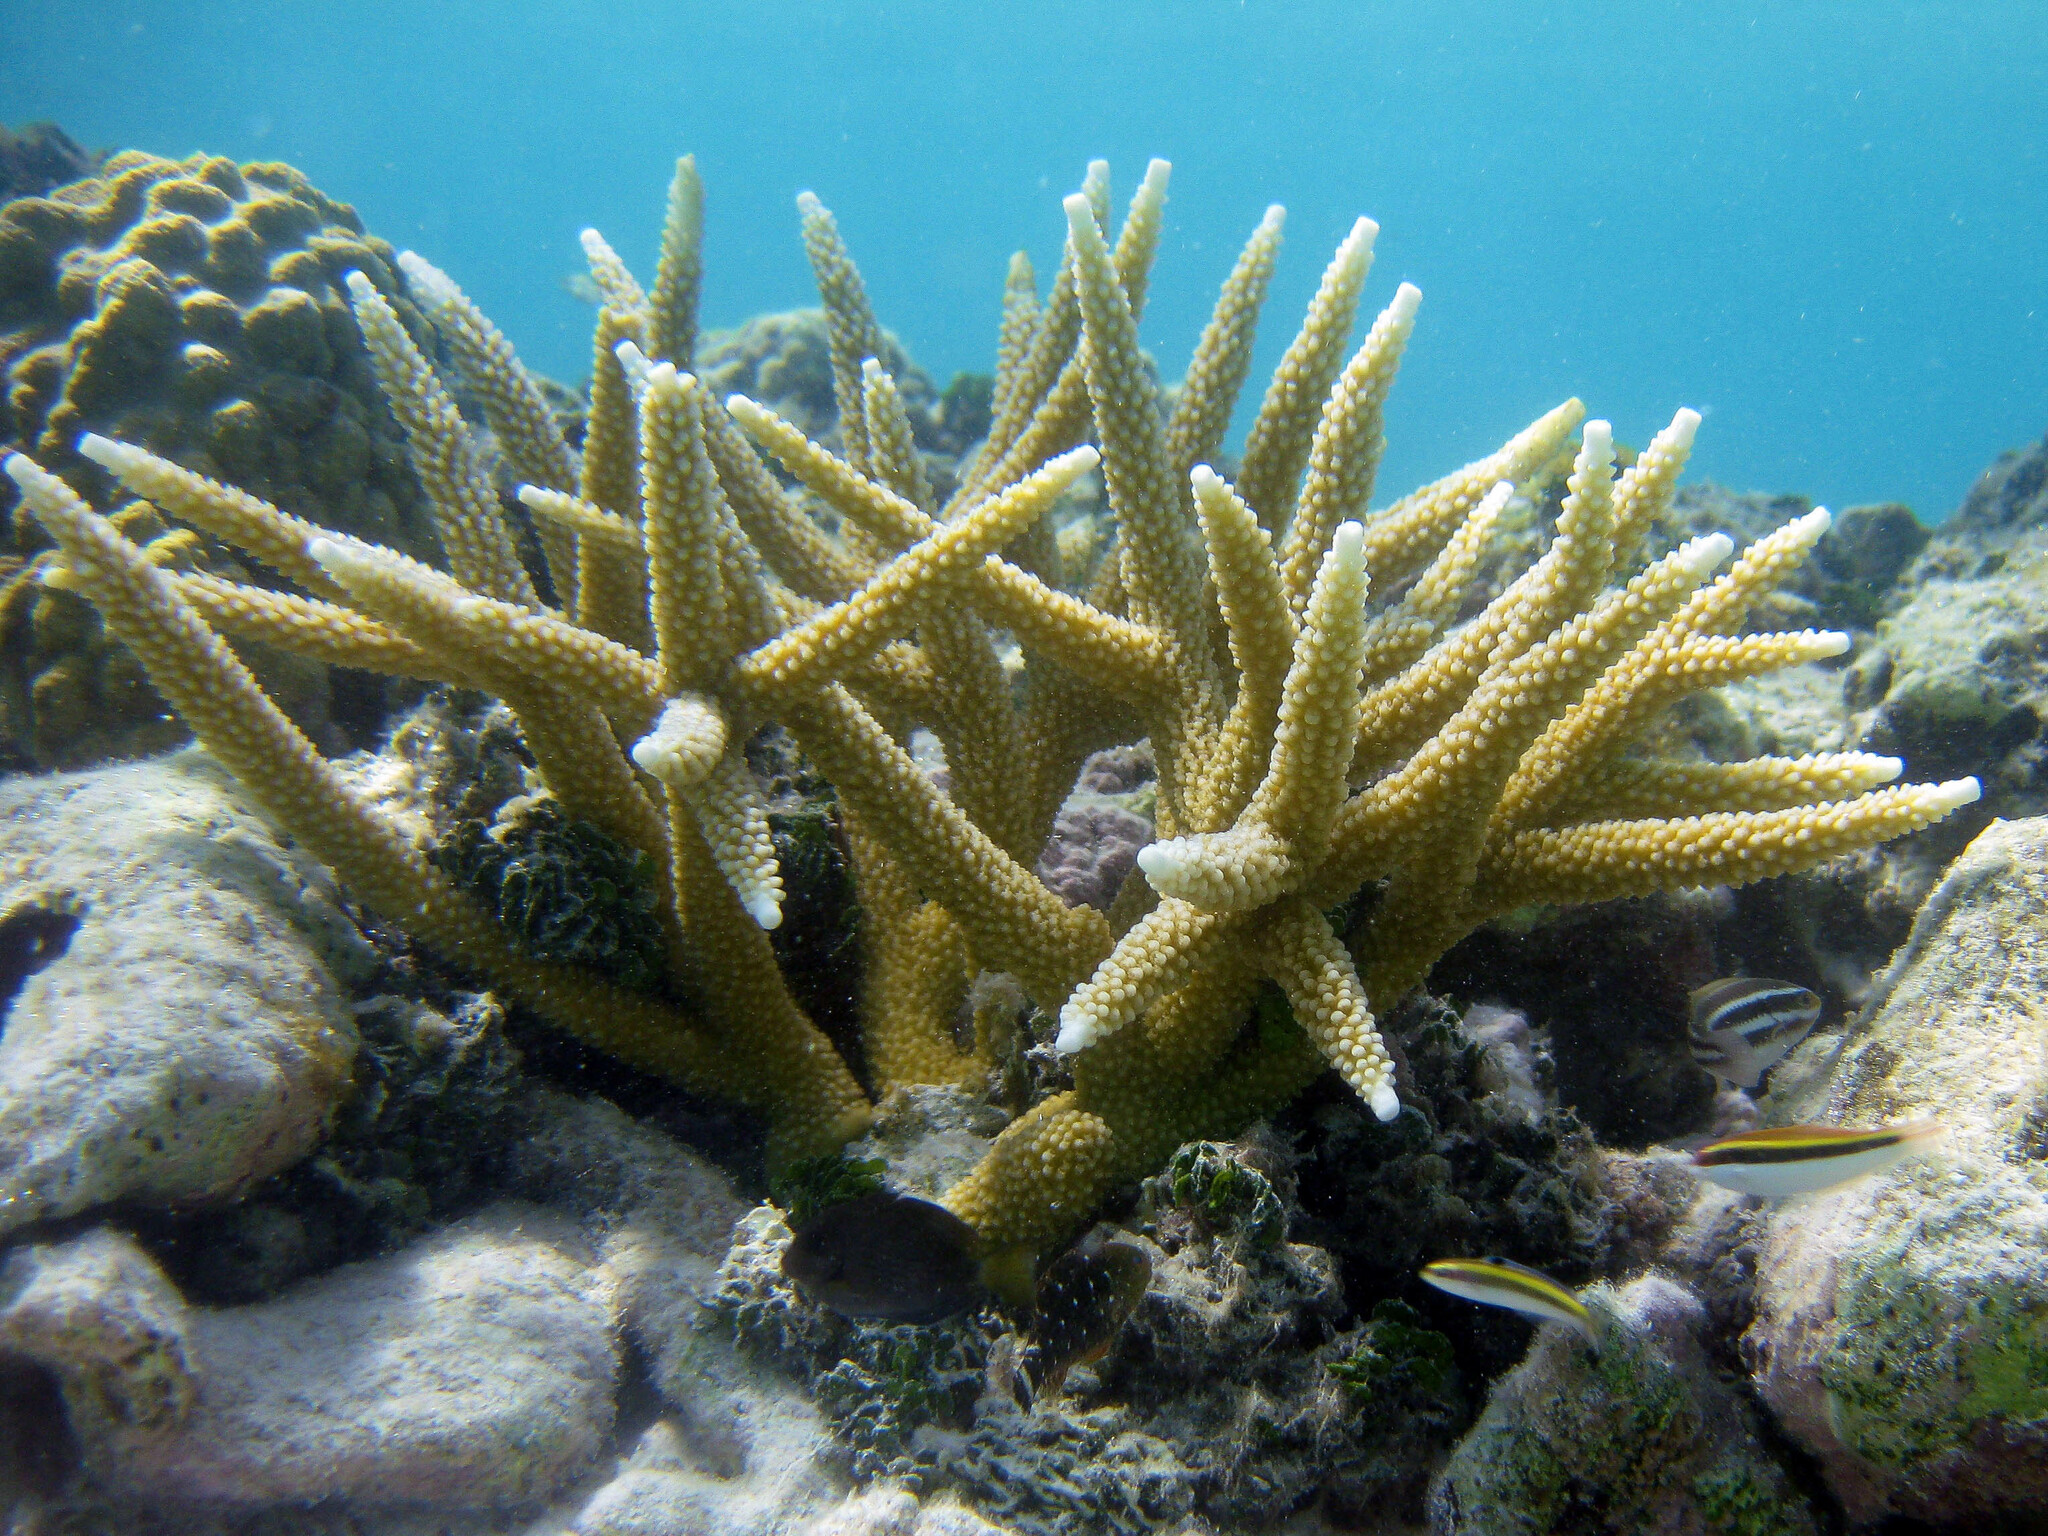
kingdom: Animalia
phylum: Cnidaria
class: Anthozoa
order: Scleractinia
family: Acroporidae
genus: Acropora
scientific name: Acropora cervicornis
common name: Staghorn coral
